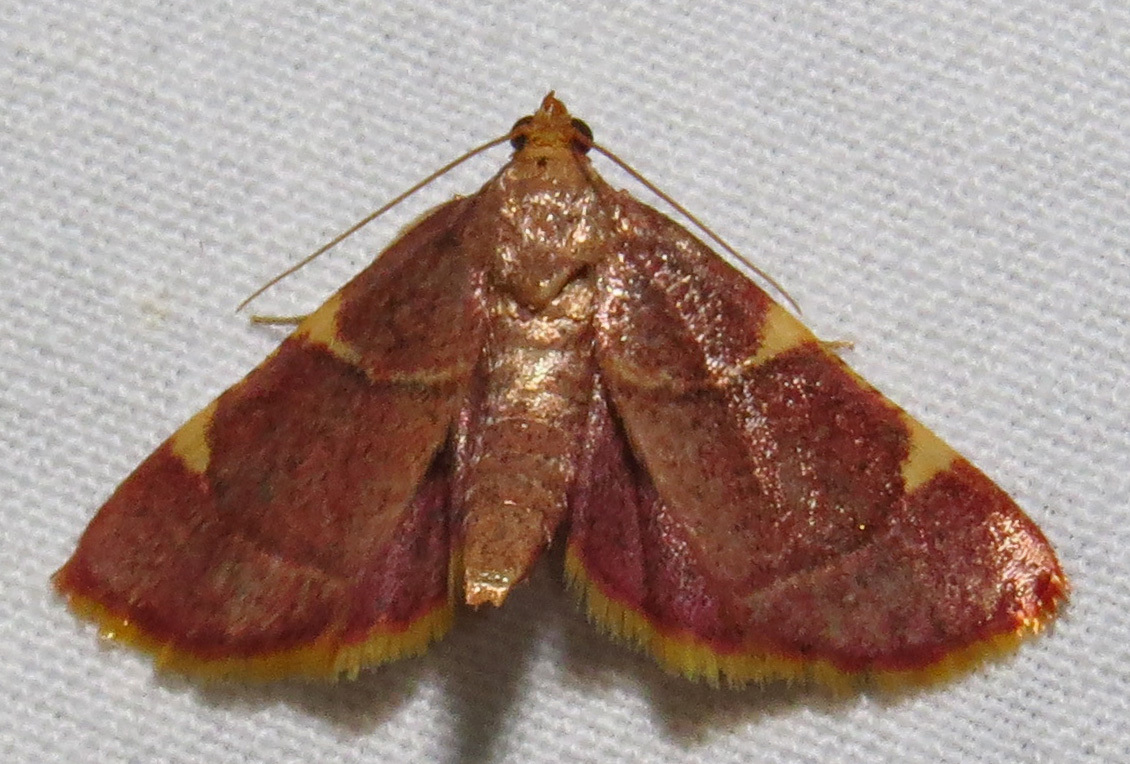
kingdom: Animalia
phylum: Arthropoda
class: Insecta
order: Lepidoptera
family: Pyralidae
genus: Hypsopygia
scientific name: Hypsopygia olinalis
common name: Yellow-fringed dolichomia moth
